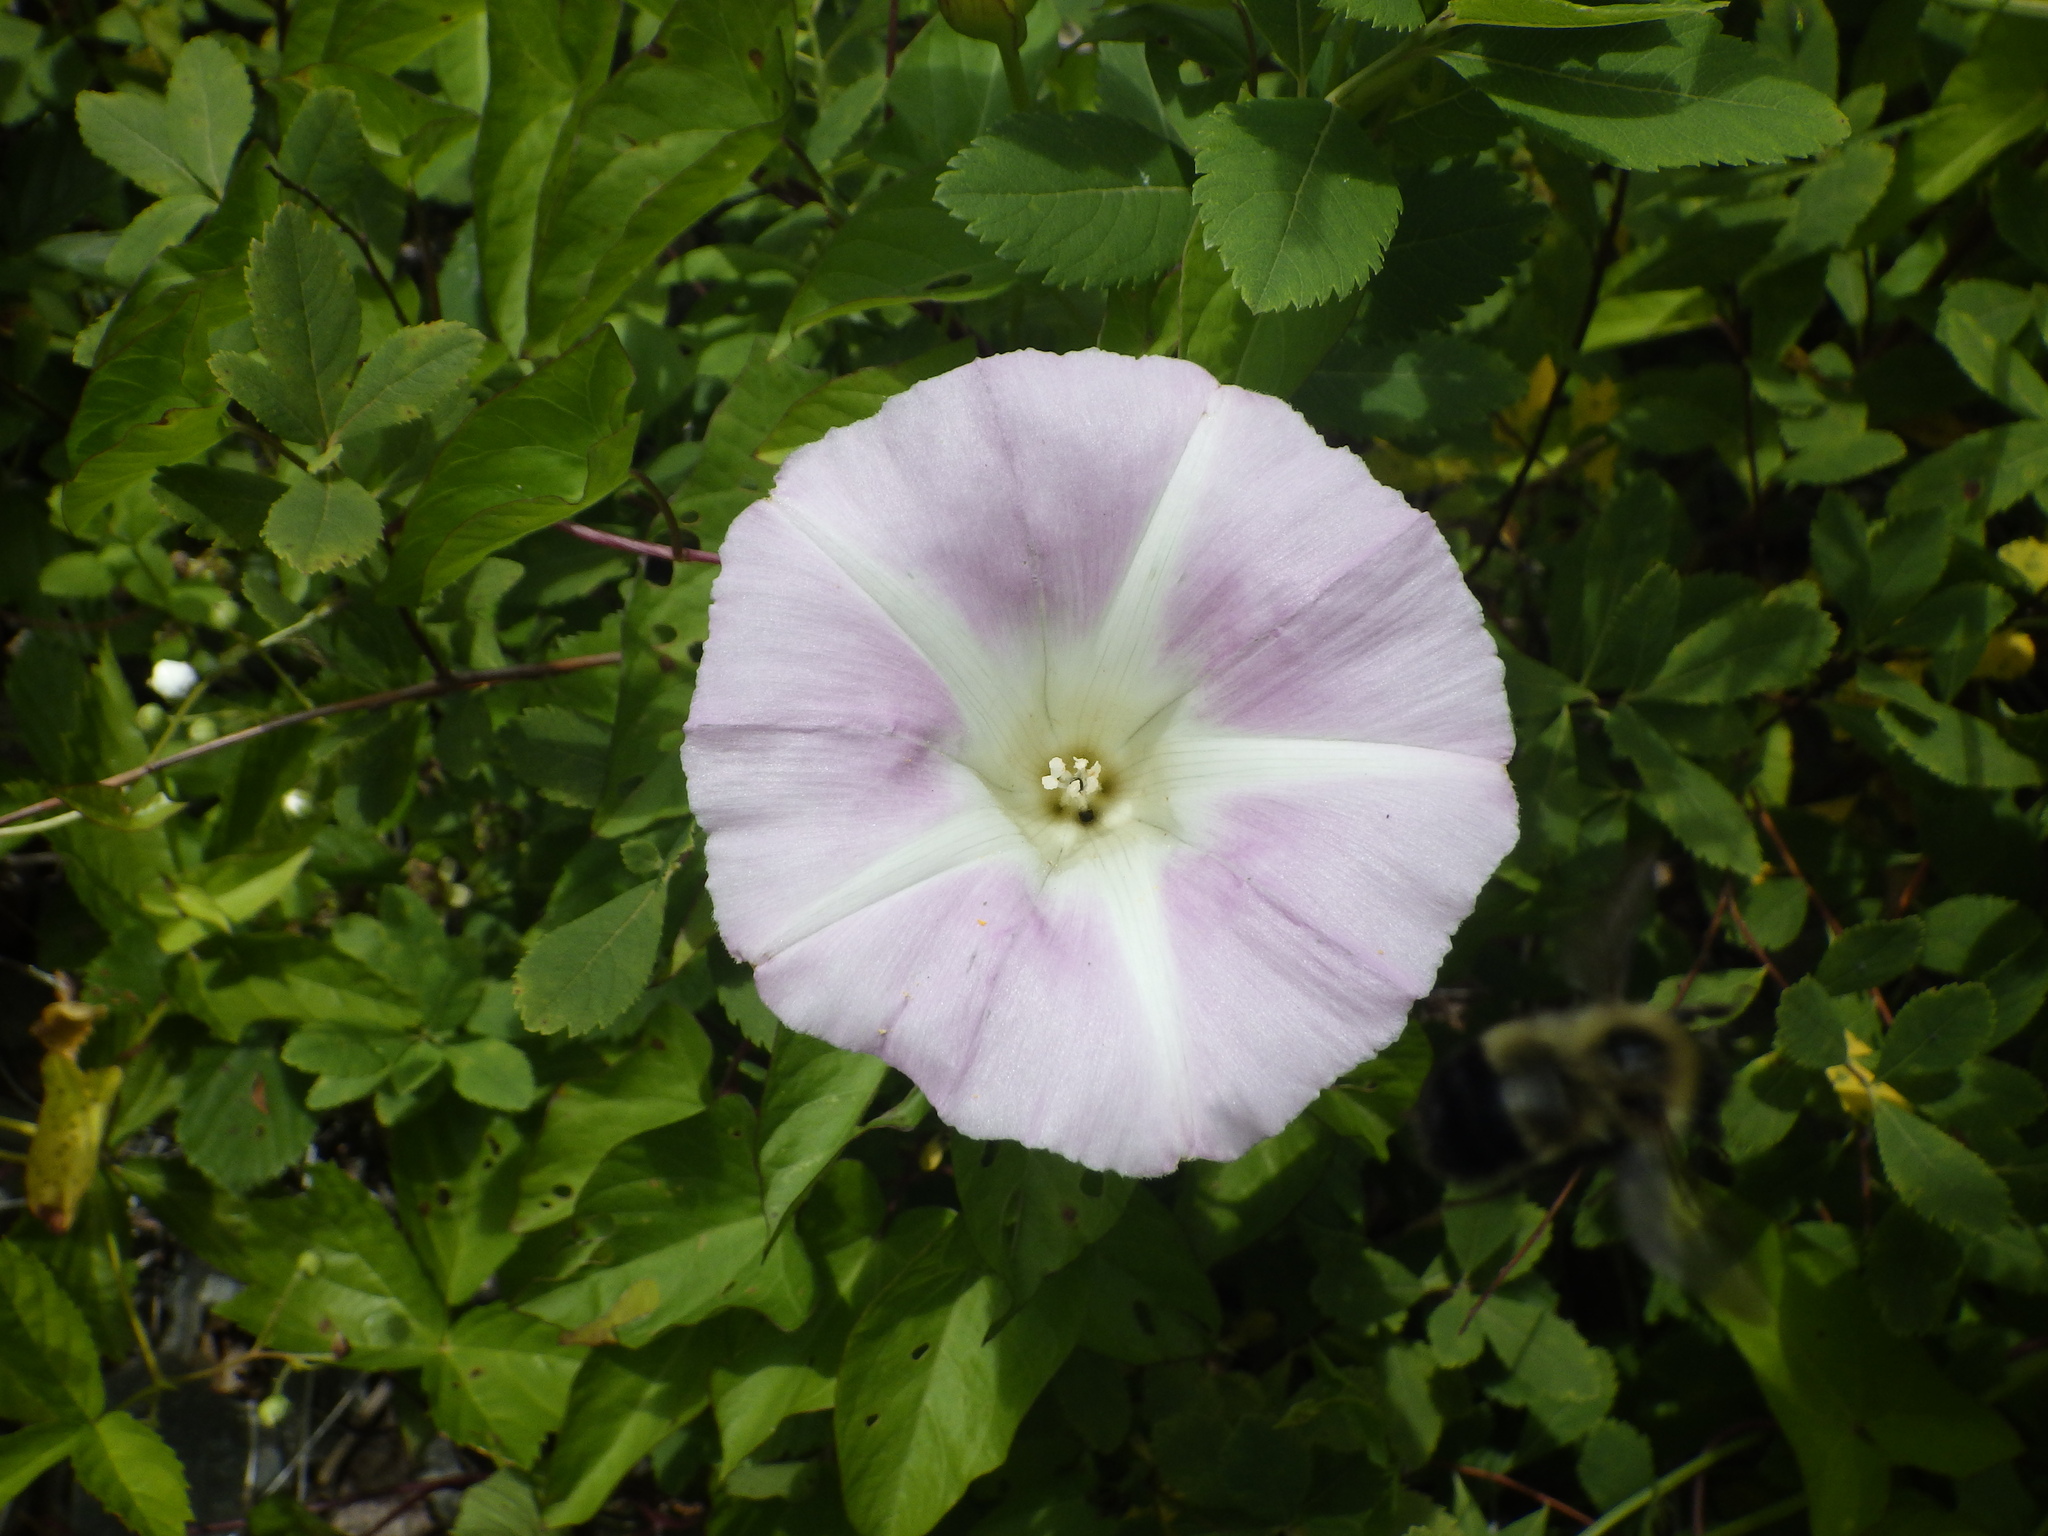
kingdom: Plantae
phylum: Tracheophyta
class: Magnoliopsida
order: Solanales
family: Convolvulaceae
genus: Calystegia
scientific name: Calystegia sepium
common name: Hedge bindweed
